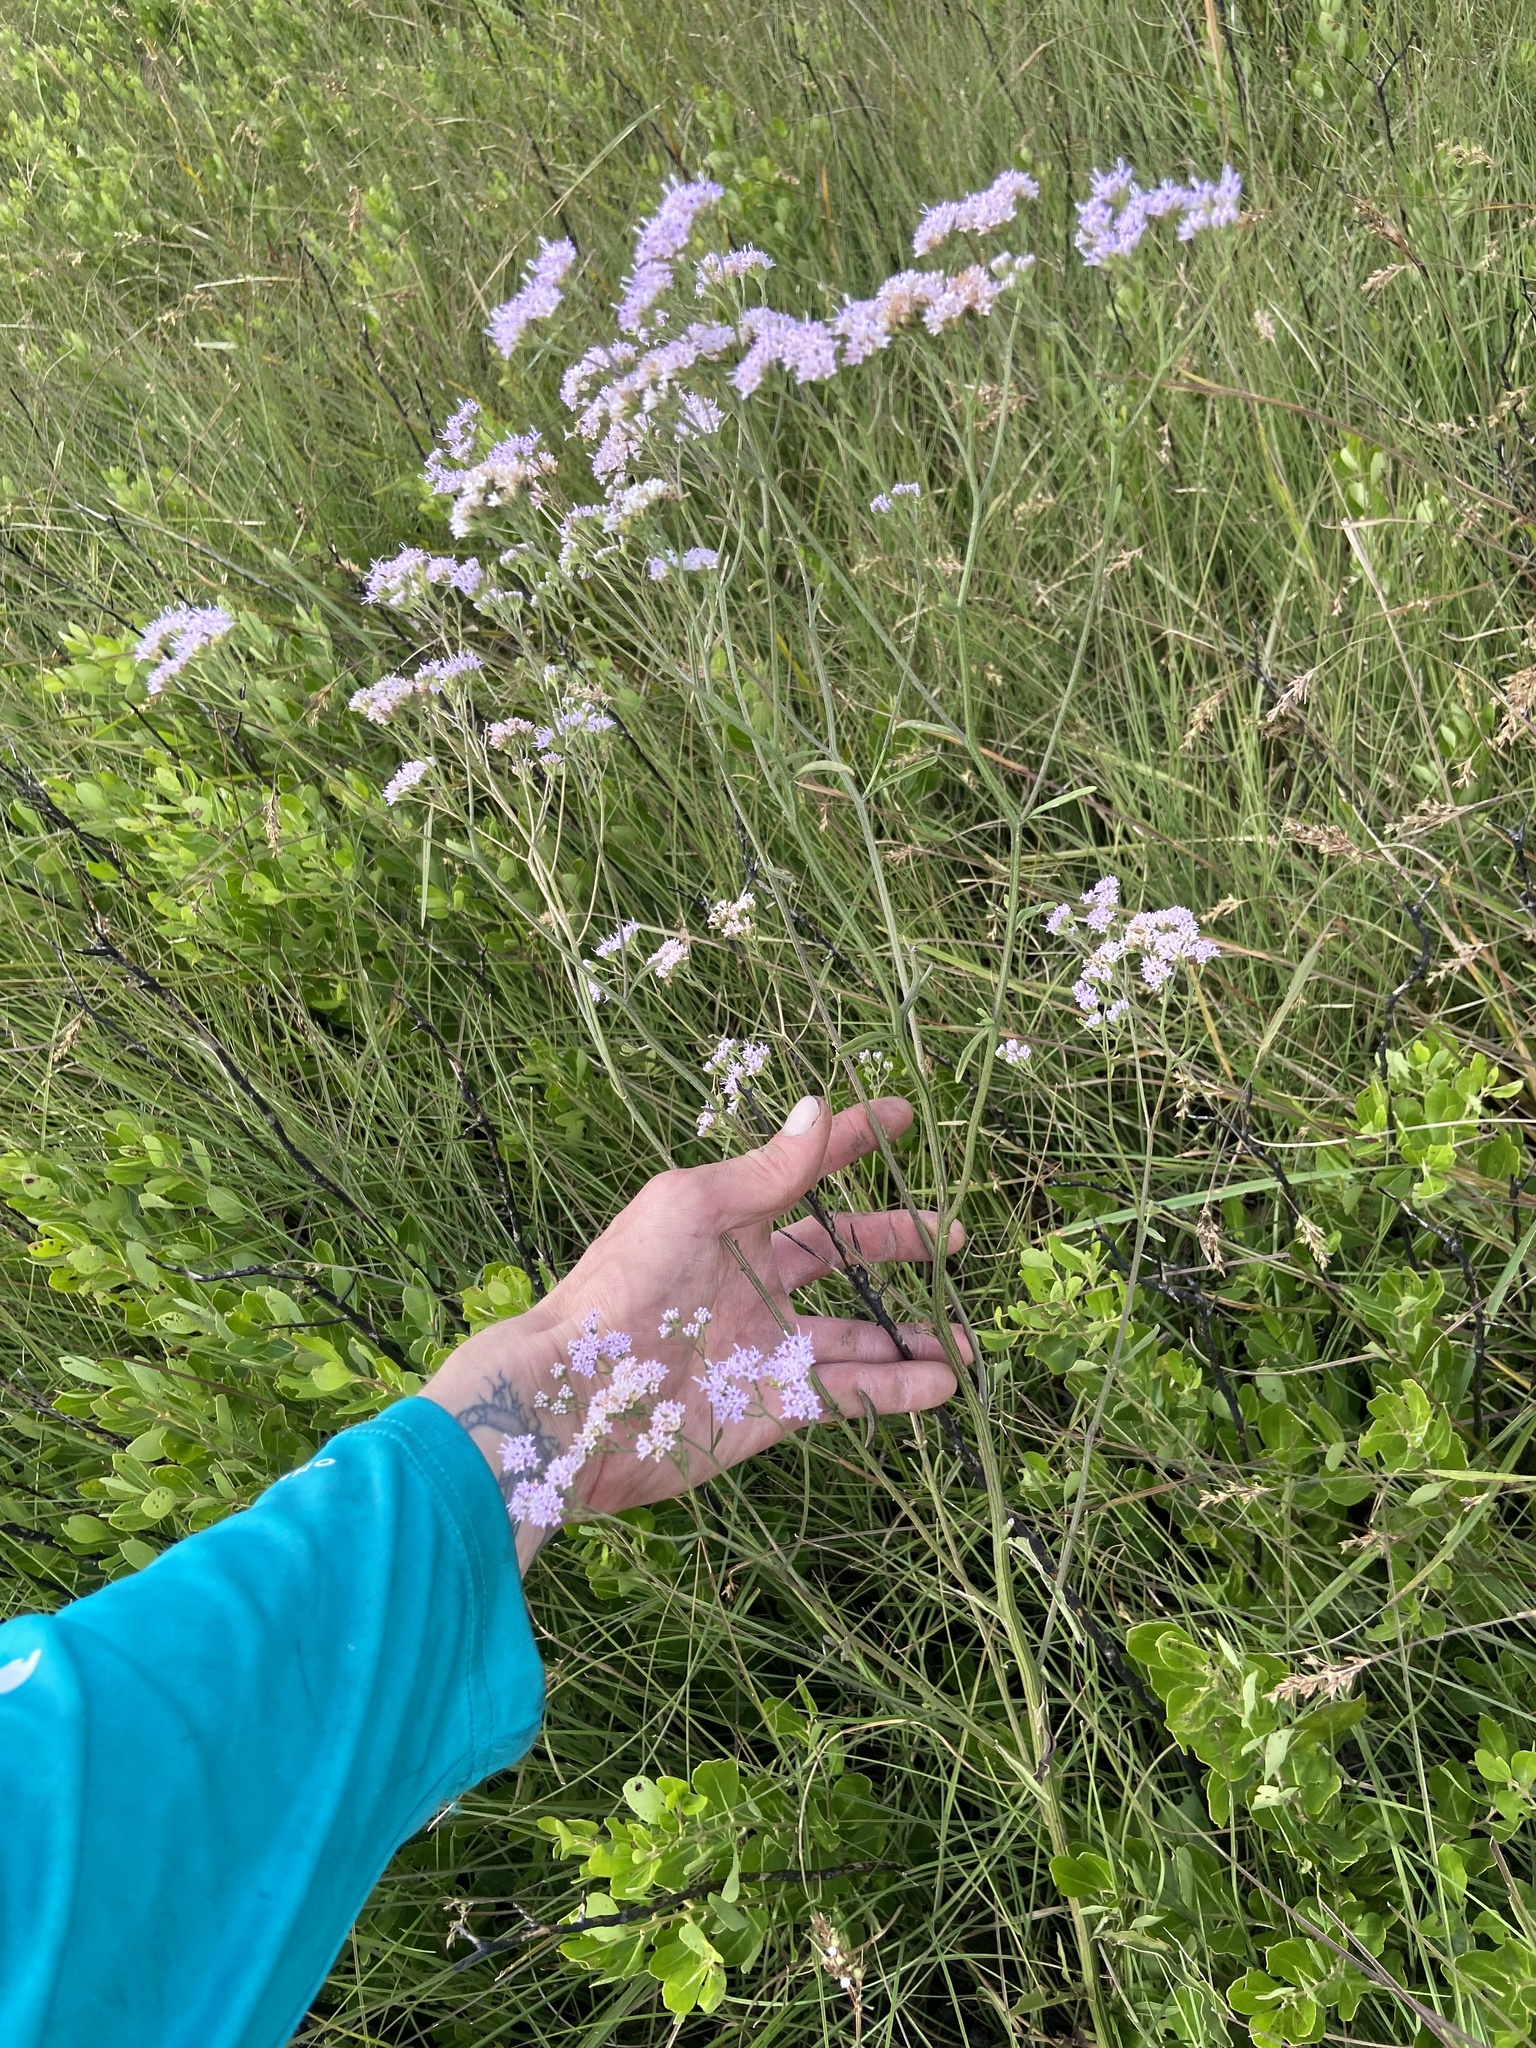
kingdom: Plantae
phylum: Tracheophyta
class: Magnoliopsida
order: Asterales
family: Asteraceae
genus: Hartwrightia
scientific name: Hartwrightia floridana
